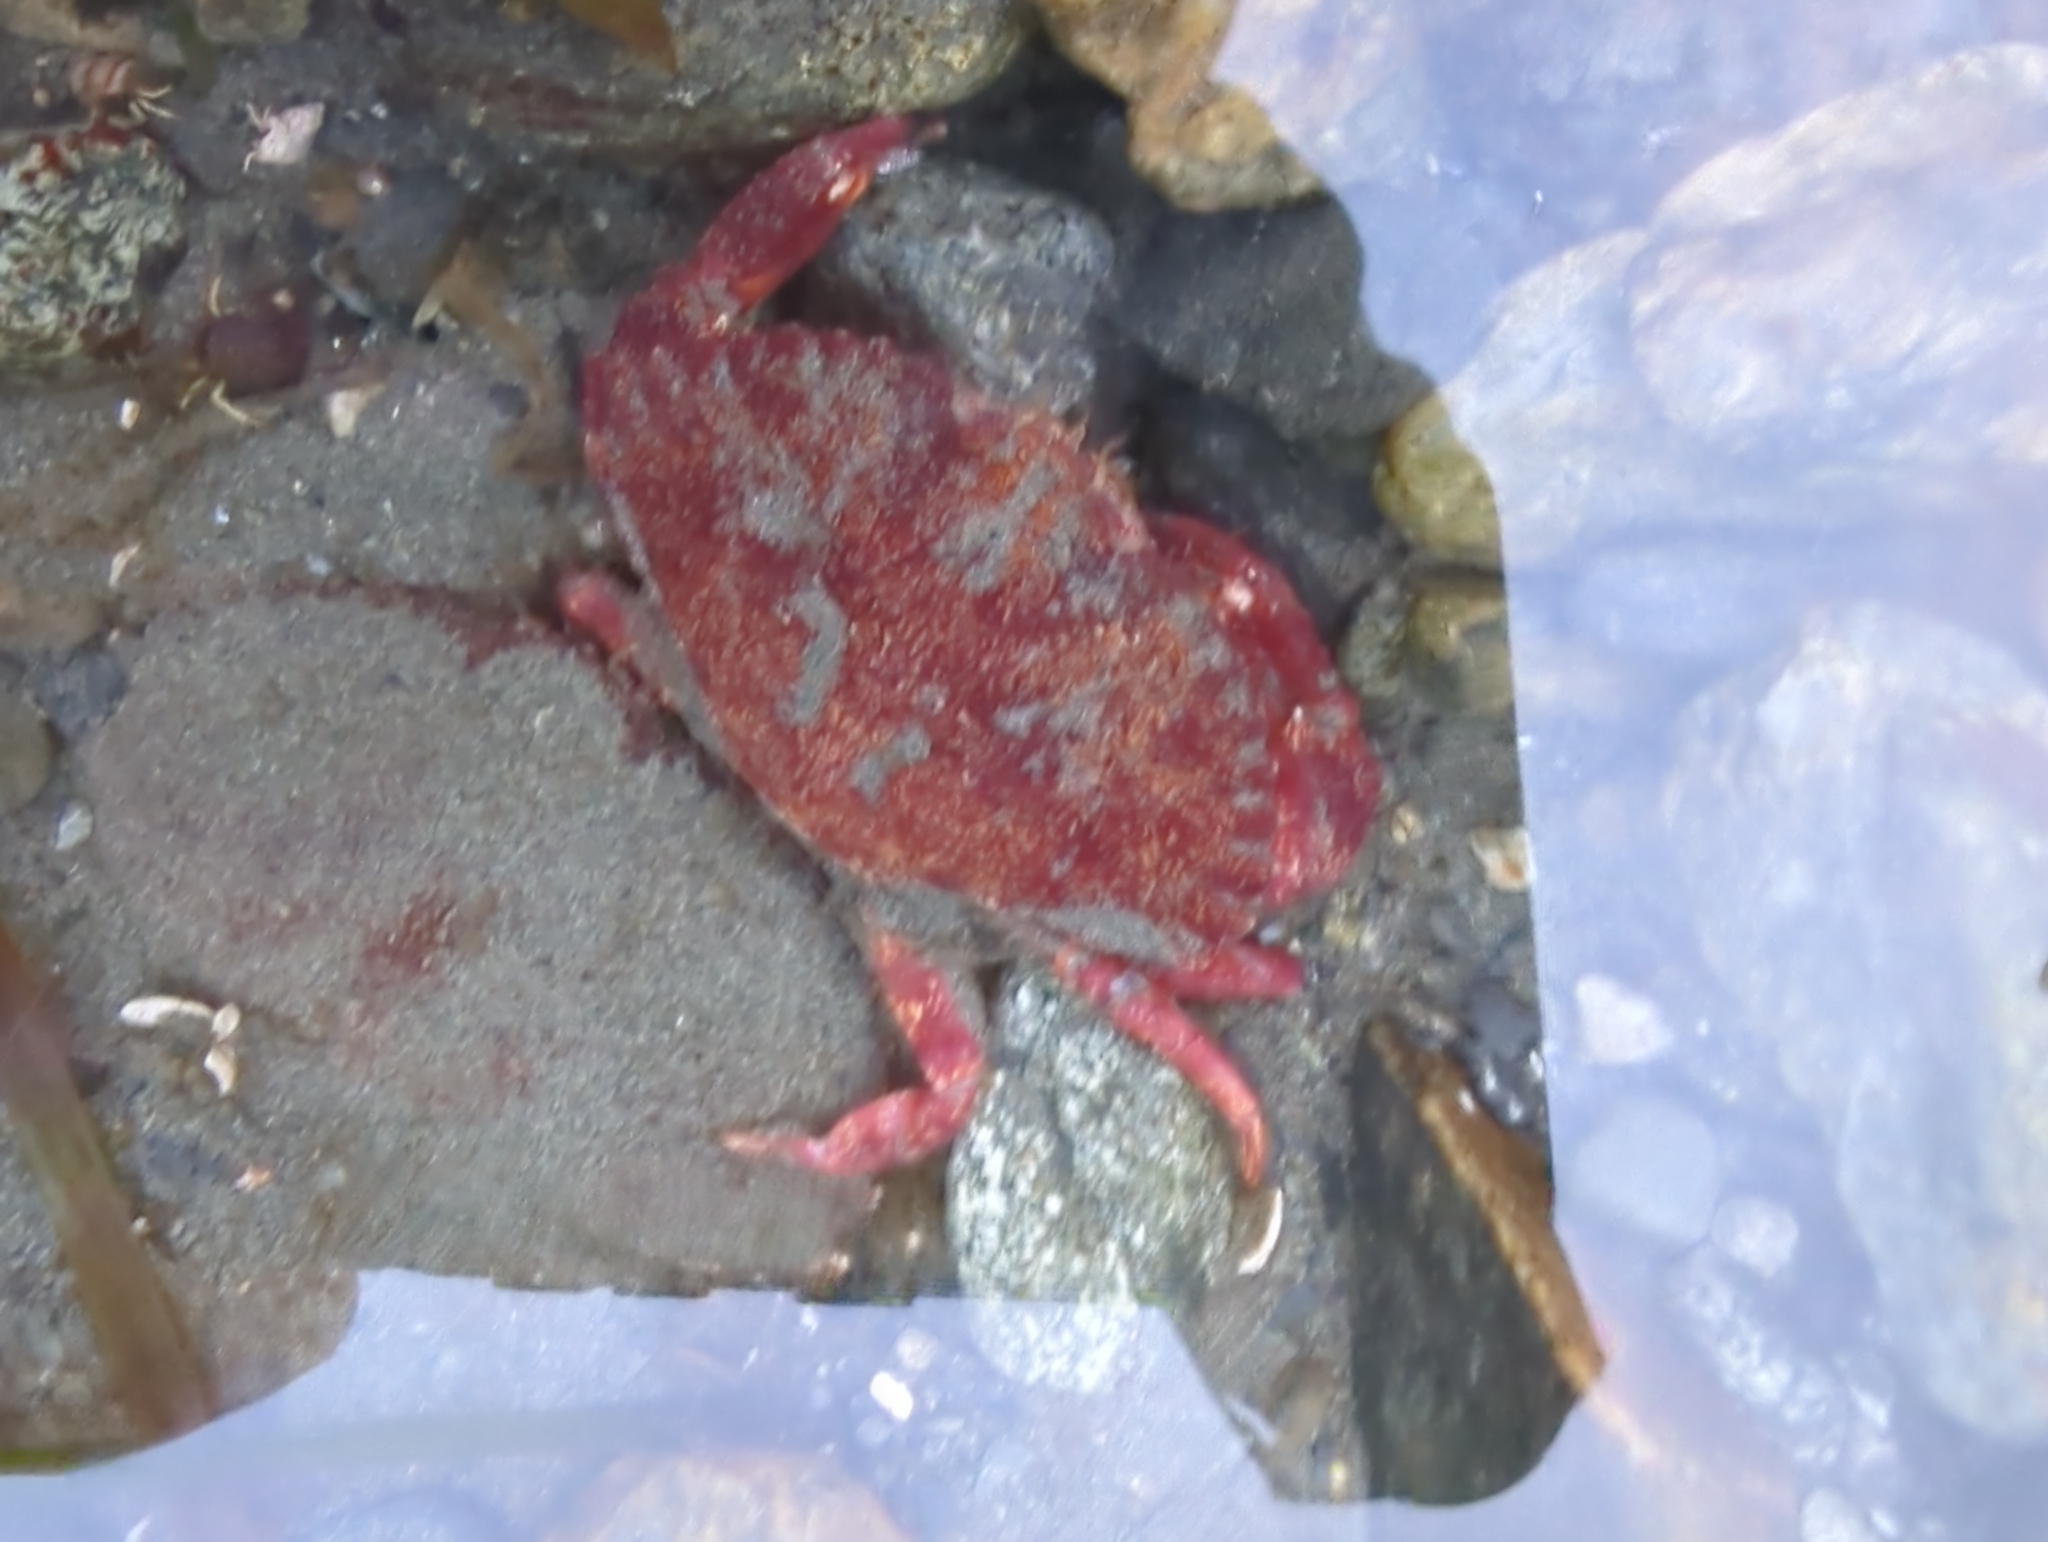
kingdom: Animalia
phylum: Arthropoda
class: Malacostraca
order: Decapoda
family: Cancridae
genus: Cancer
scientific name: Cancer productus
